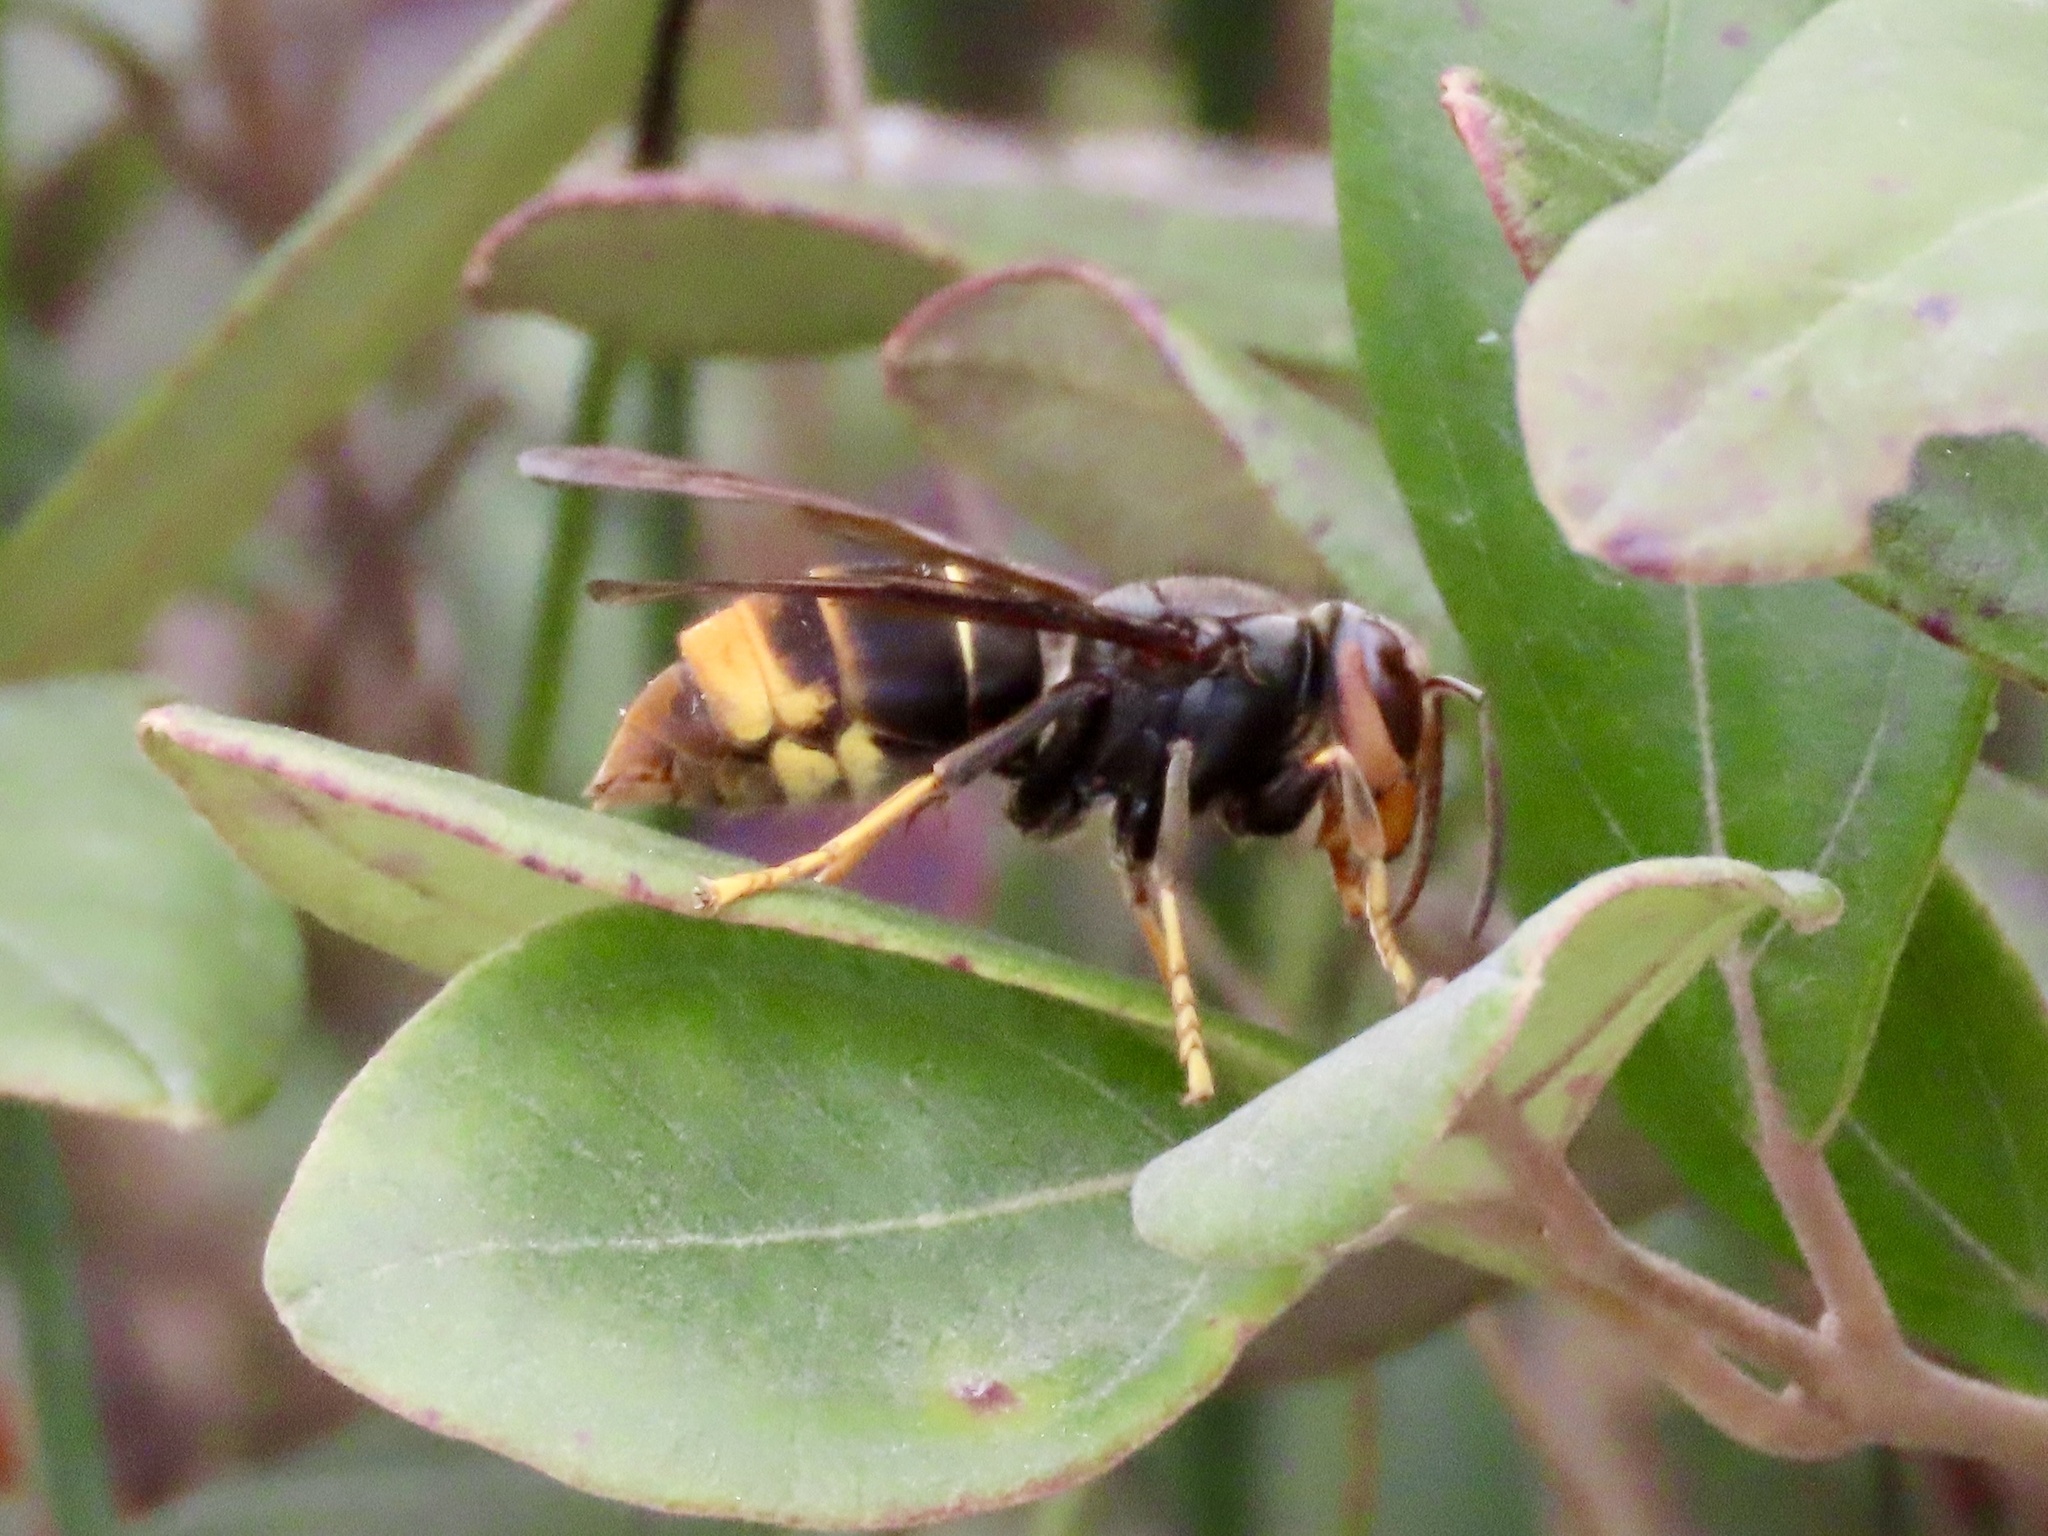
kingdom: Animalia
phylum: Arthropoda
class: Insecta
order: Hymenoptera
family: Vespidae
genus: Vespa
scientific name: Vespa velutina
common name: Asian hornet
